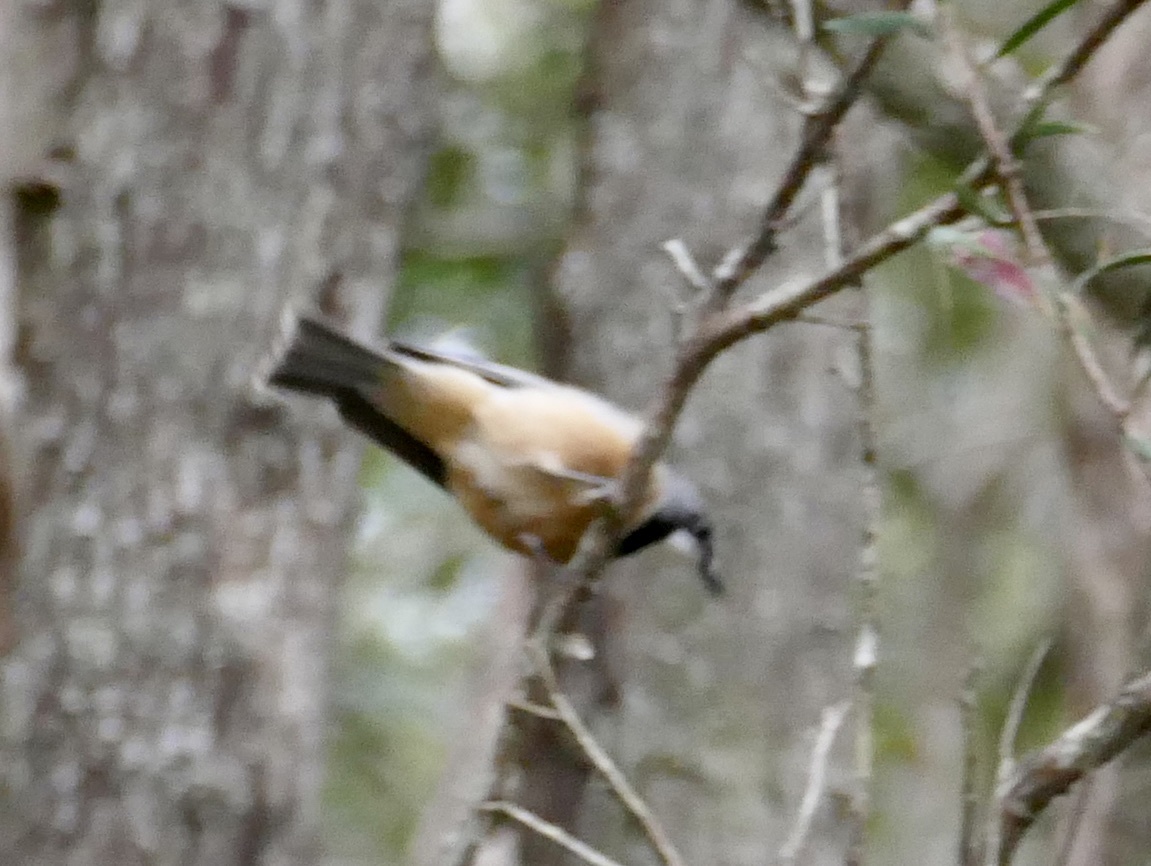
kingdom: Animalia
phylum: Chordata
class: Aves
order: Passeriformes
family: Pachycephalidae
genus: Pachycephala
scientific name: Pachycephala rufiventris
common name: Rufous whistler
